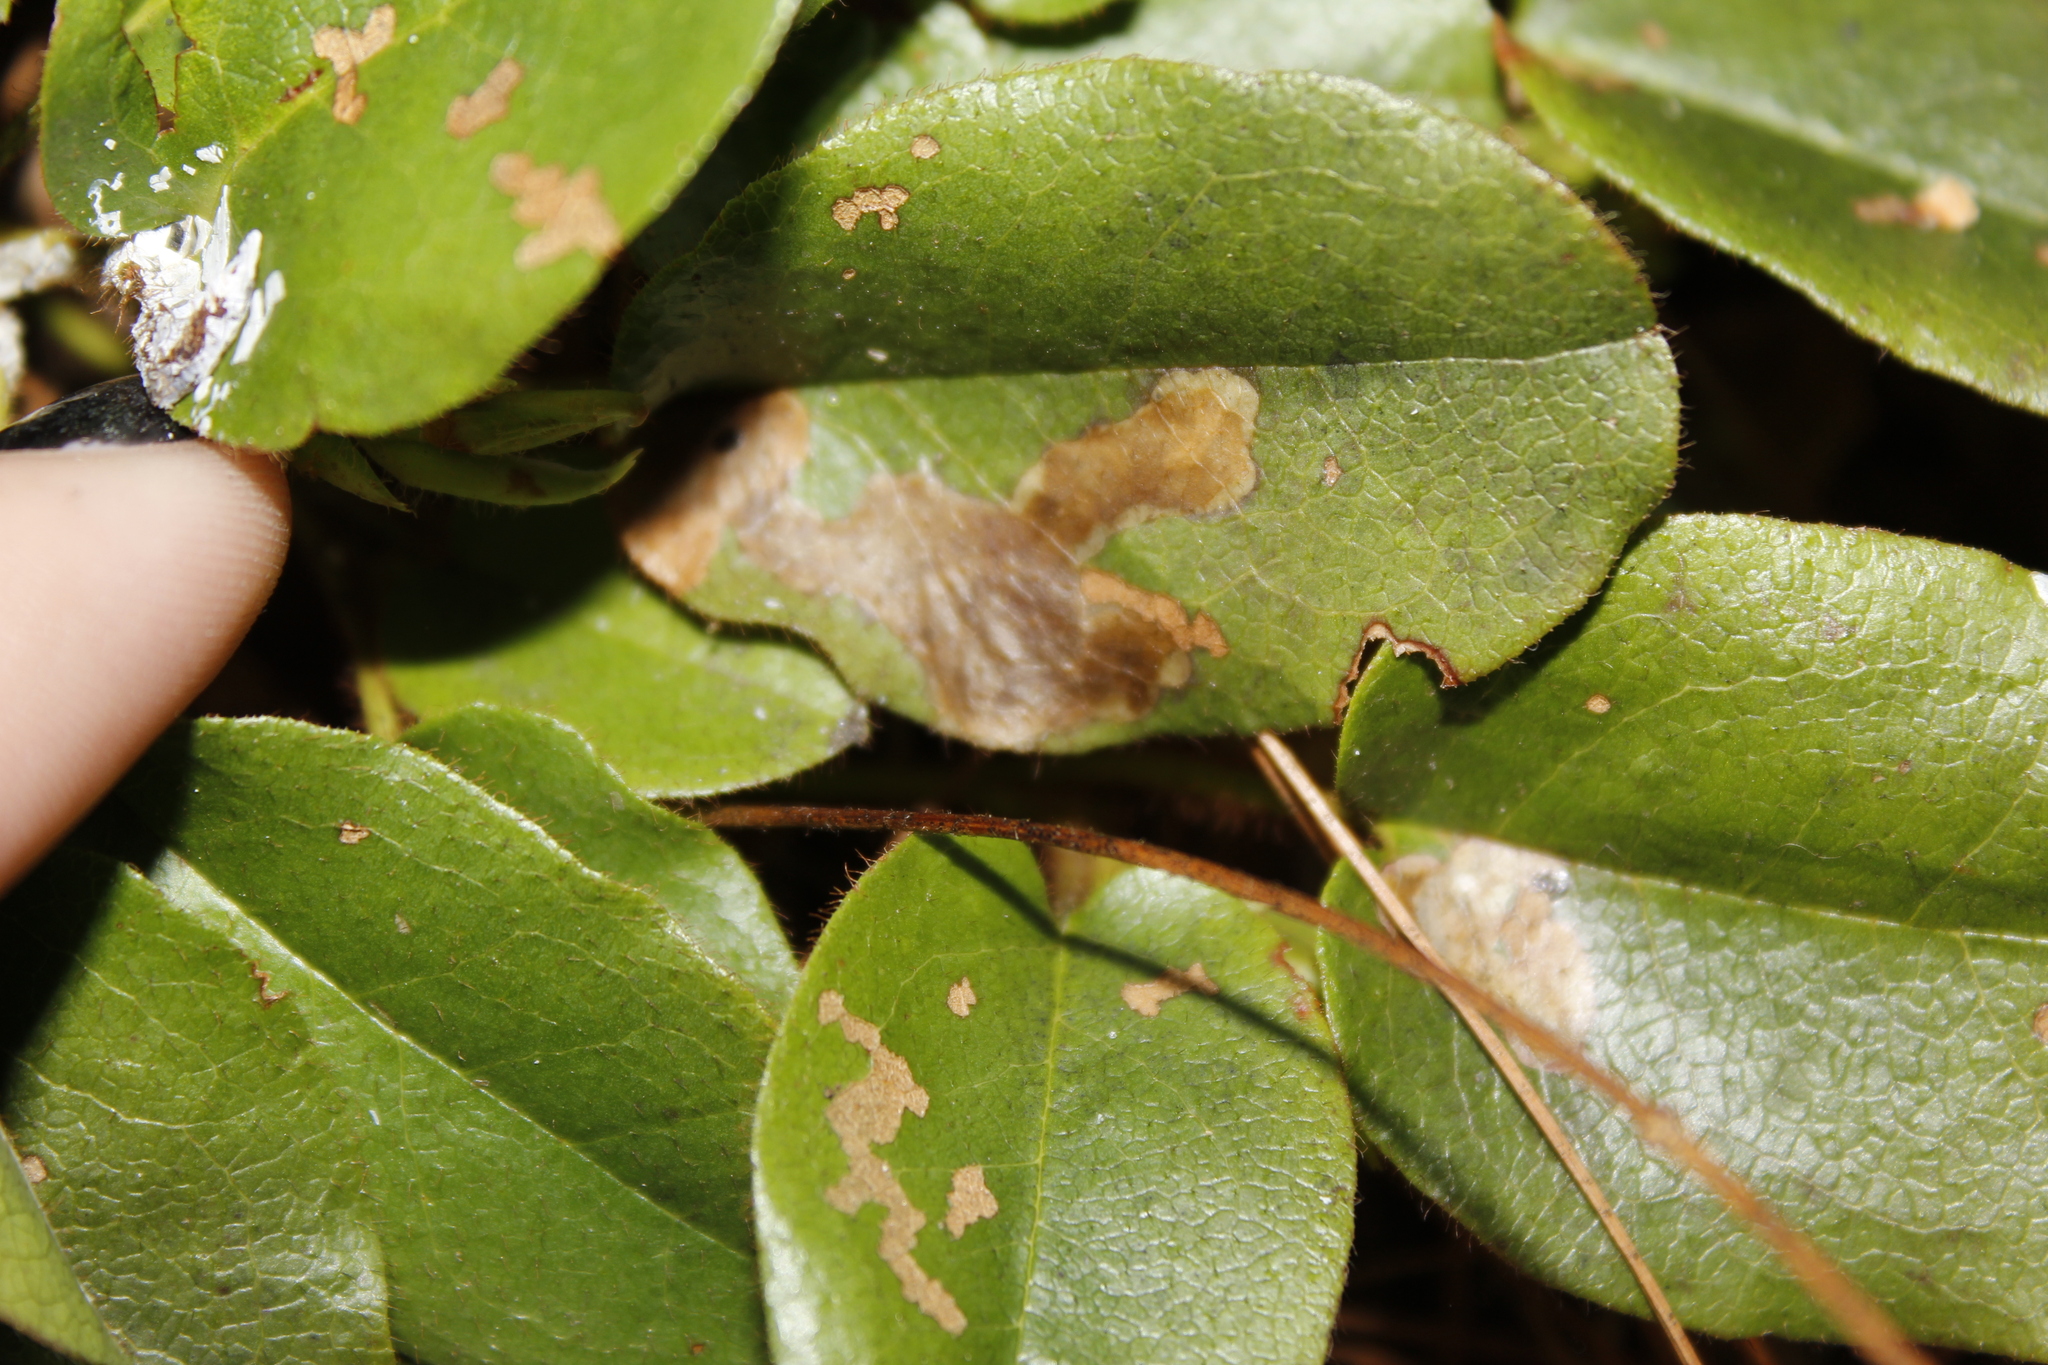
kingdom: Animalia
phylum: Arthropoda
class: Insecta
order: Coleoptera
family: Buprestidae
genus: Brachys
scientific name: Brachys
